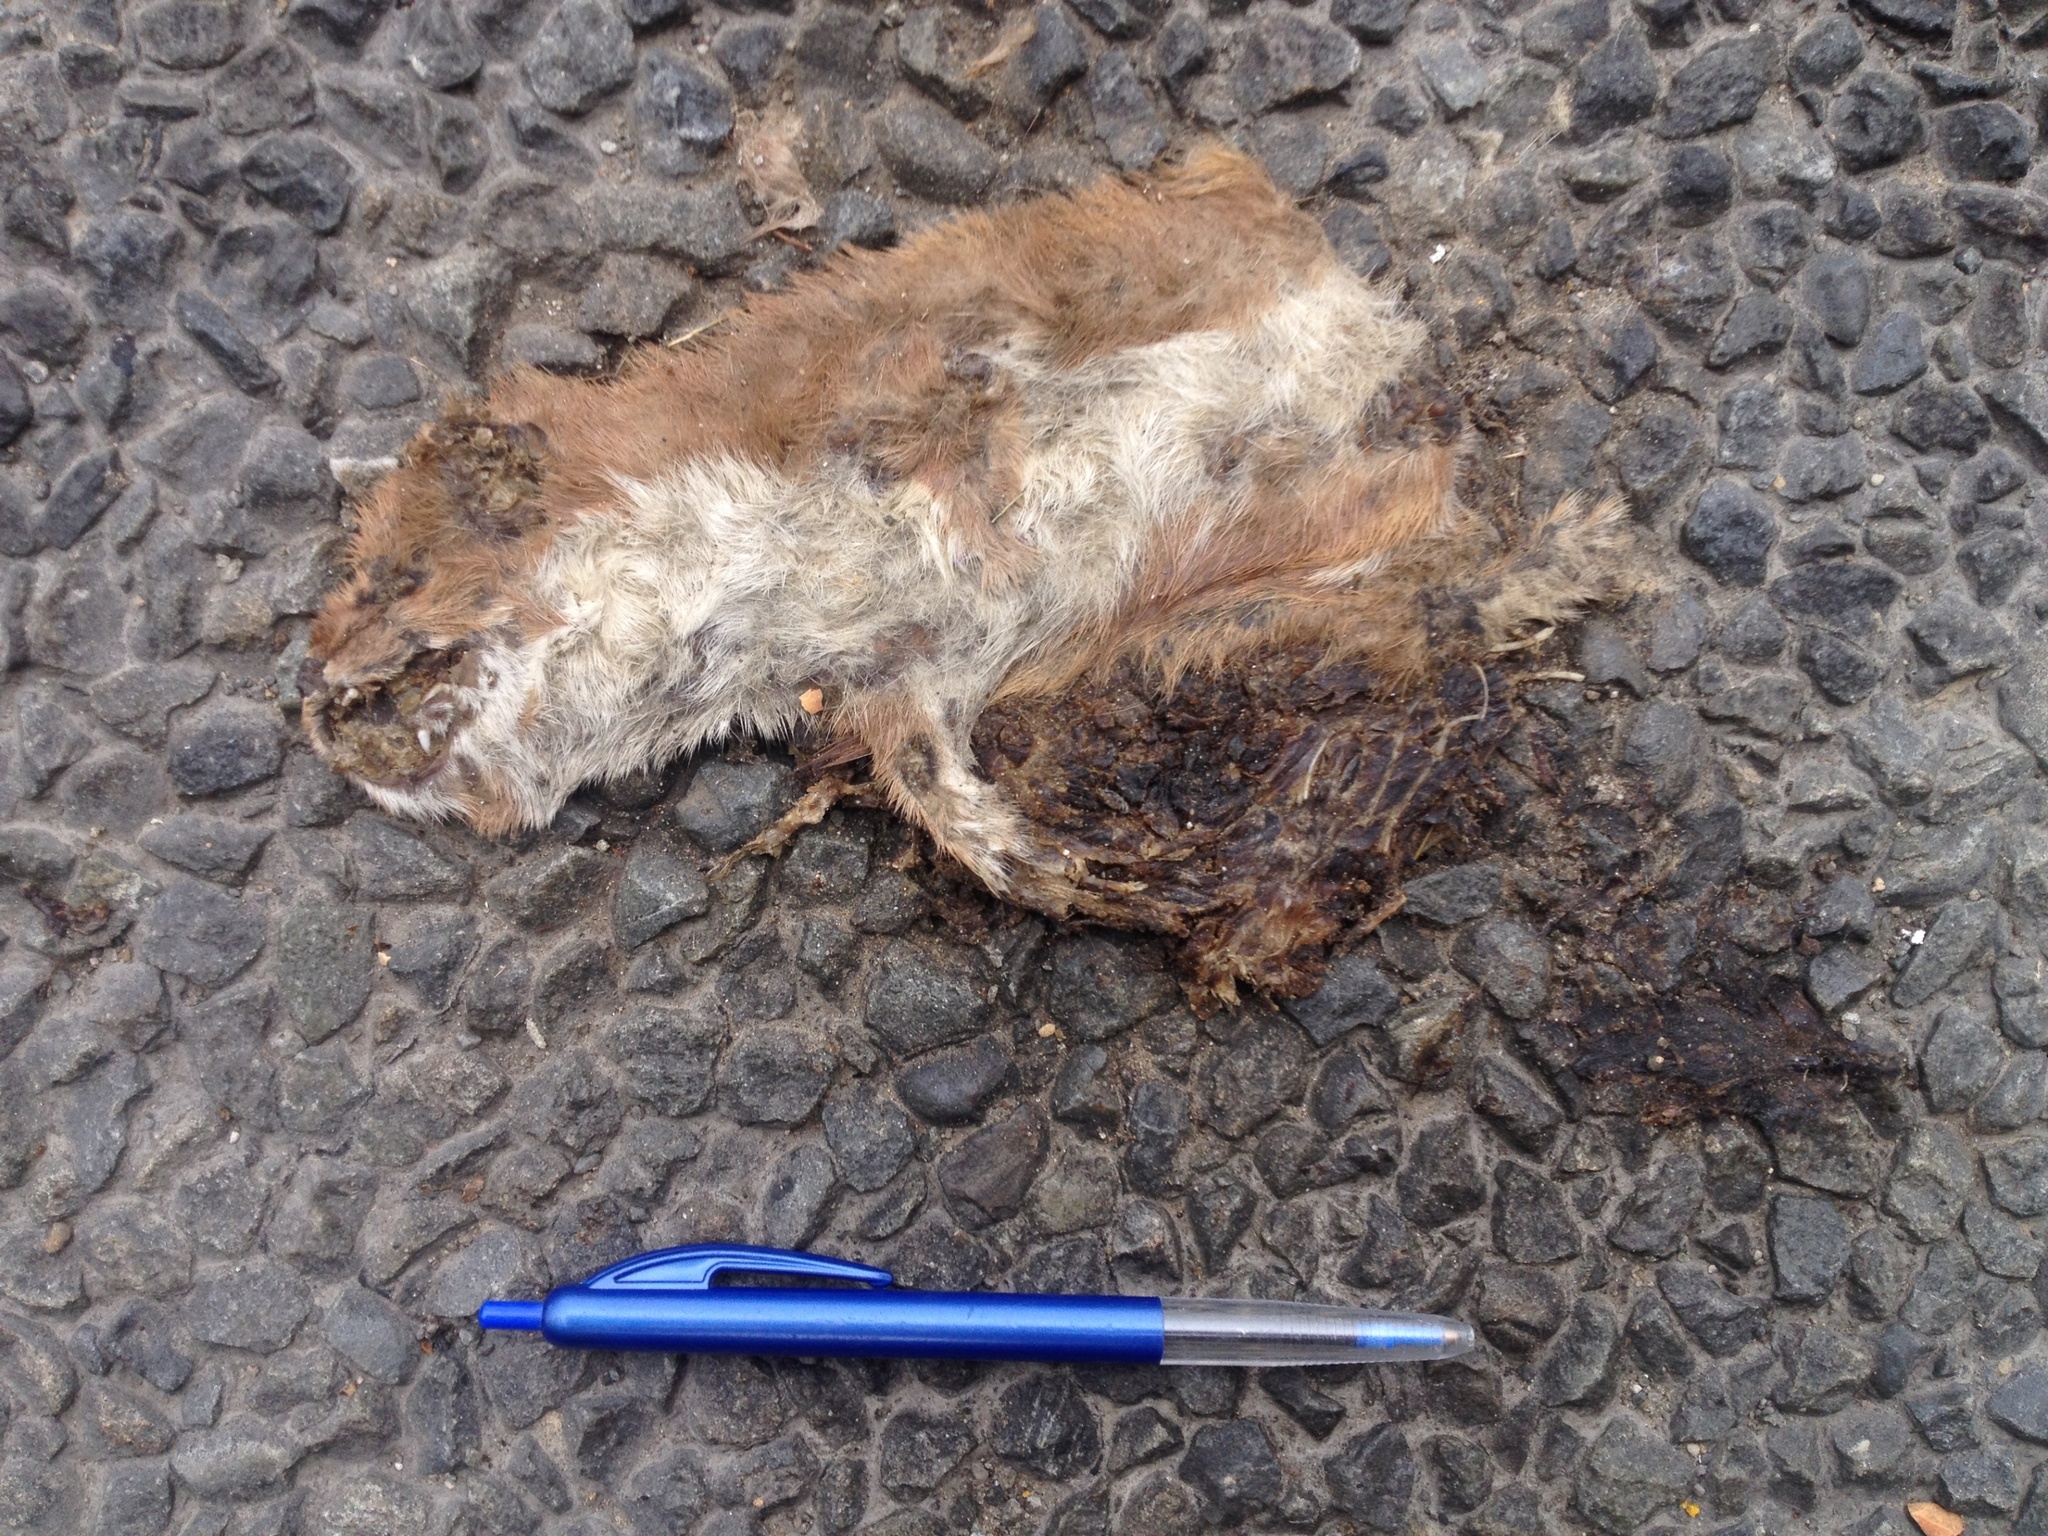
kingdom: Animalia
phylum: Chordata
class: Mammalia
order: Carnivora
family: Mustelidae
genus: Mustela
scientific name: Mustela erminea
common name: Stoat
